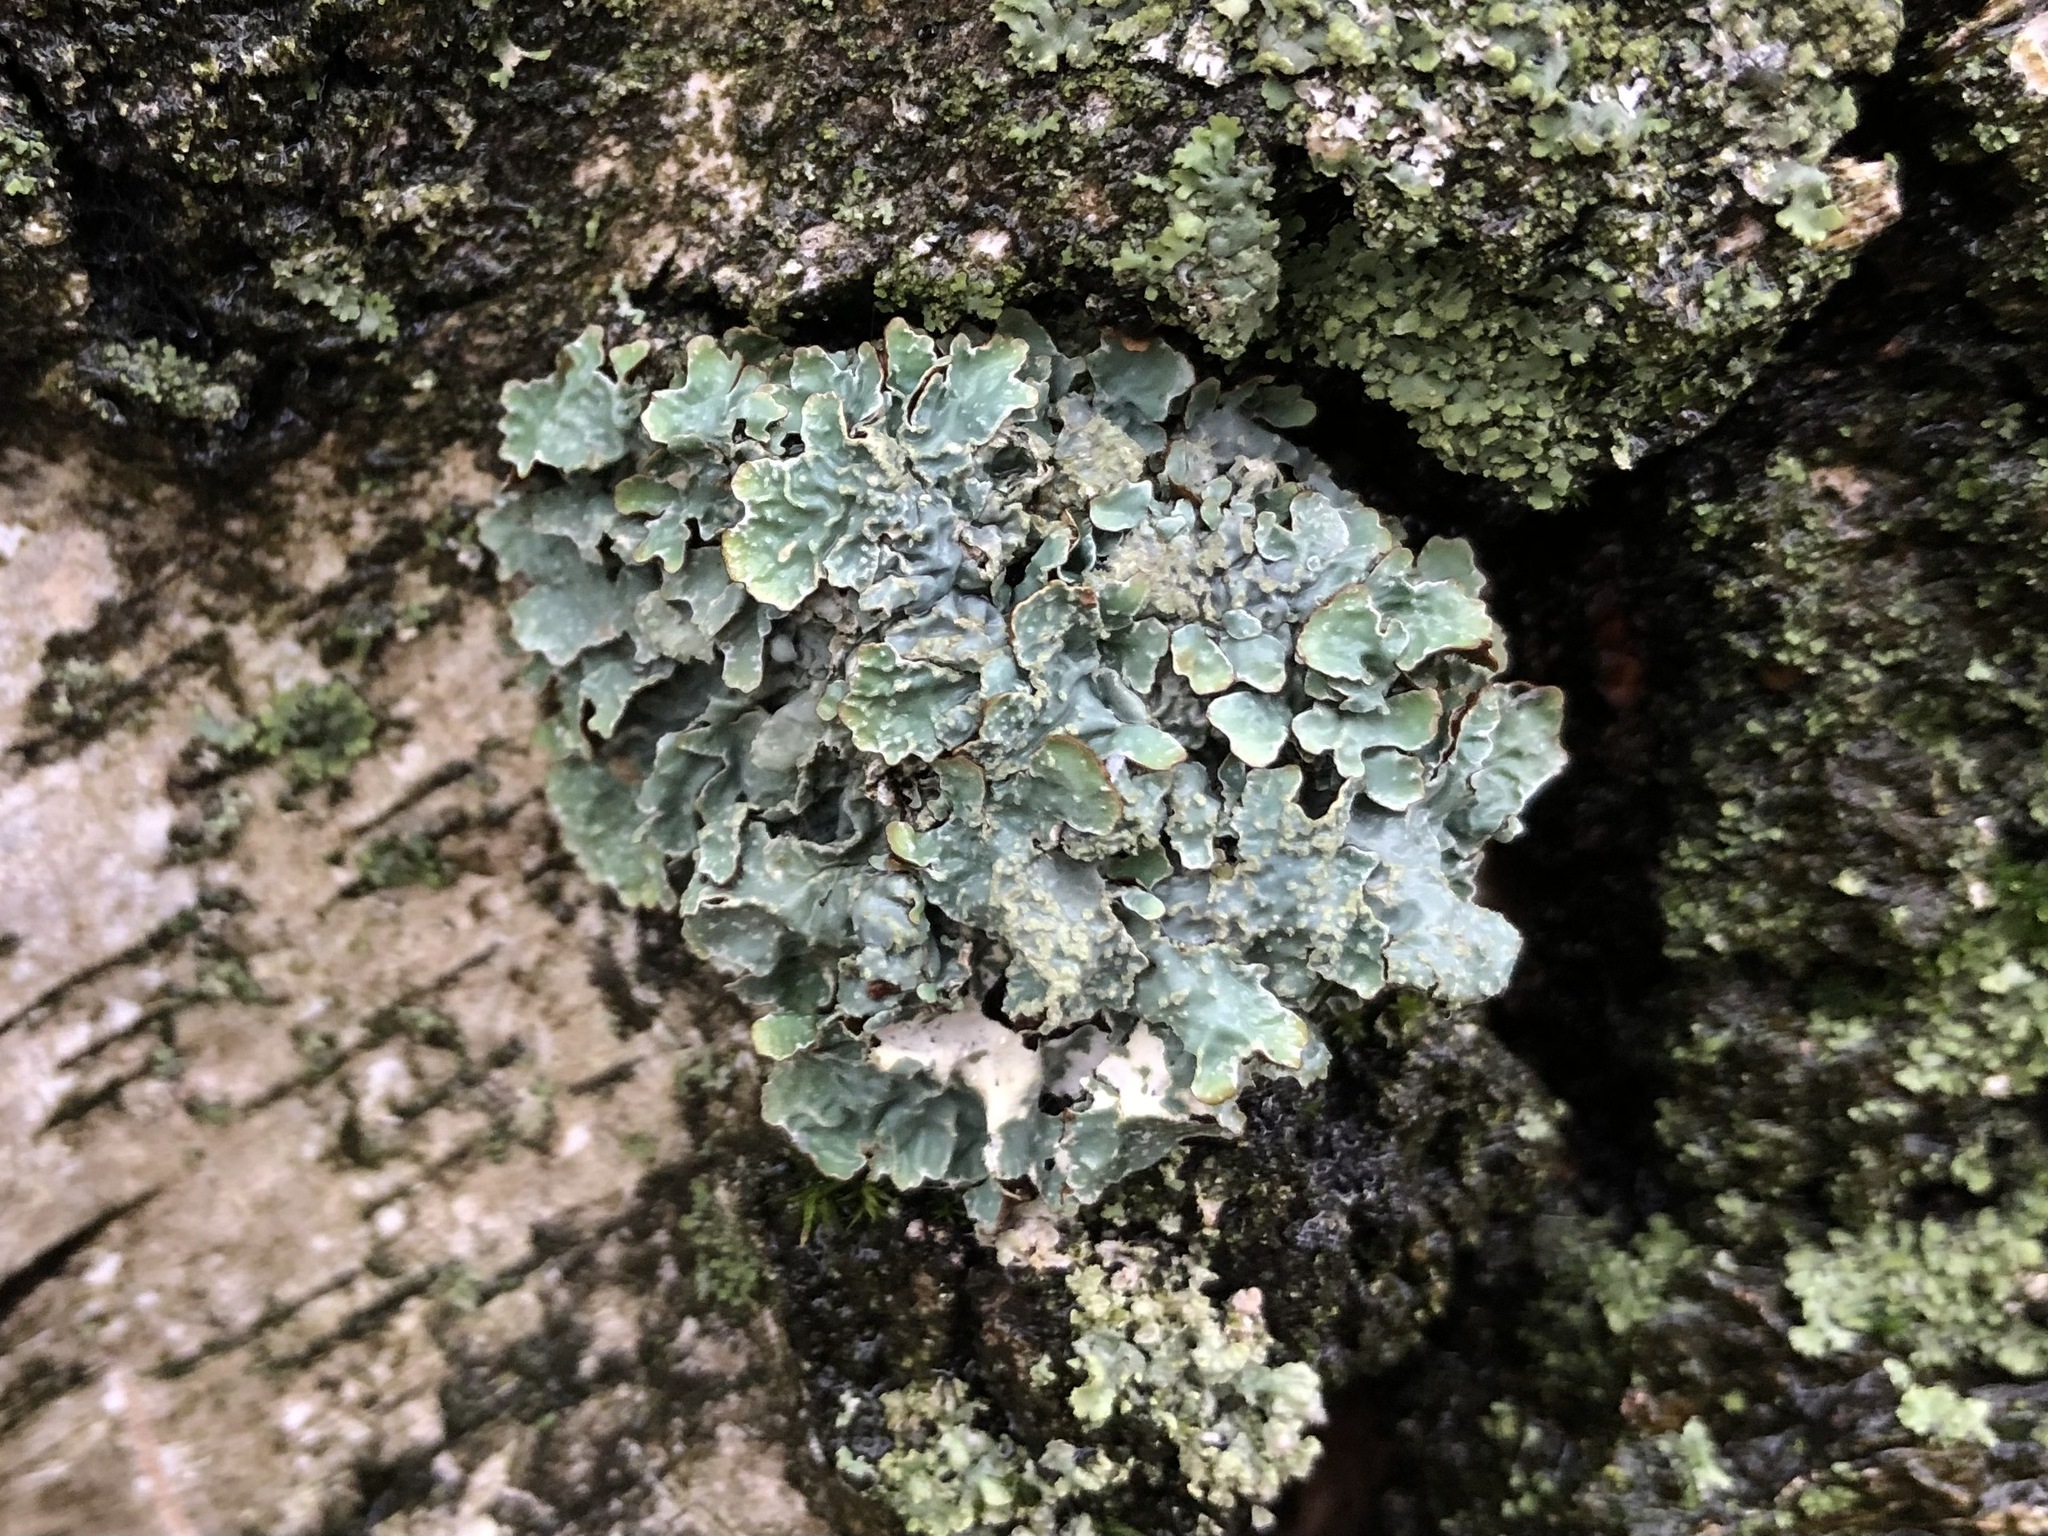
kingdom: Fungi
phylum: Ascomycota
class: Lecanoromycetes
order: Lecanorales
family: Parmeliaceae
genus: Parmelia
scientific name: Parmelia sulcata
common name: Netted shield lichen
